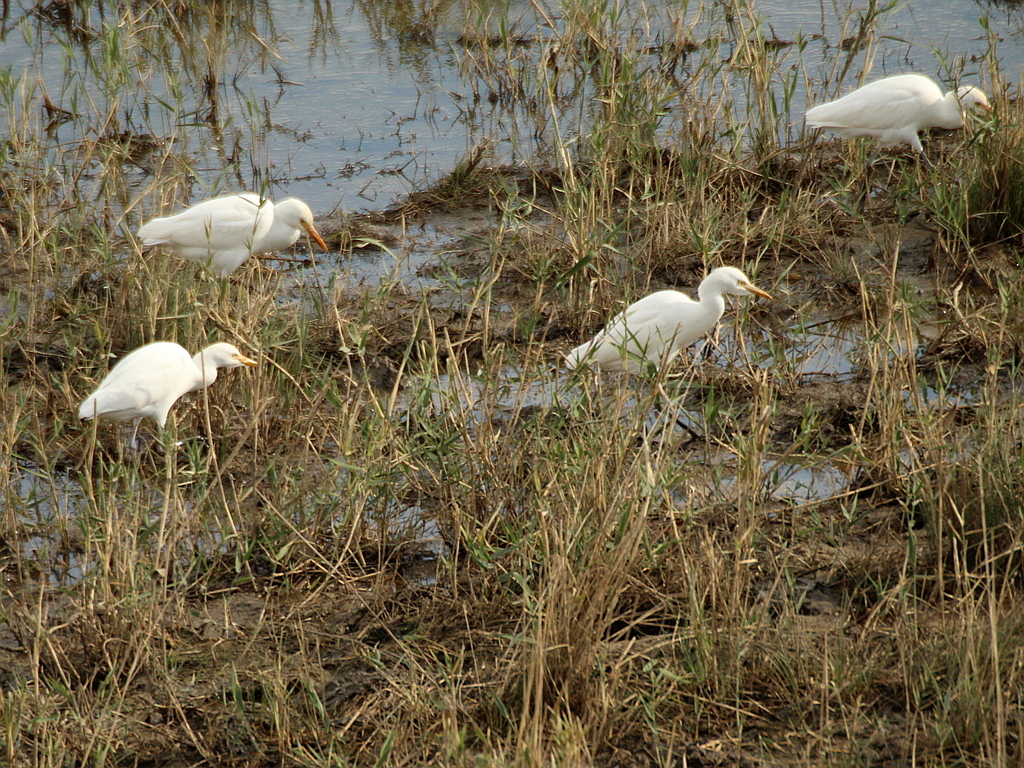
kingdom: Animalia
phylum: Chordata
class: Aves
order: Pelecaniformes
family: Ardeidae
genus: Bubulcus
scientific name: Bubulcus ibis
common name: Cattle egret
